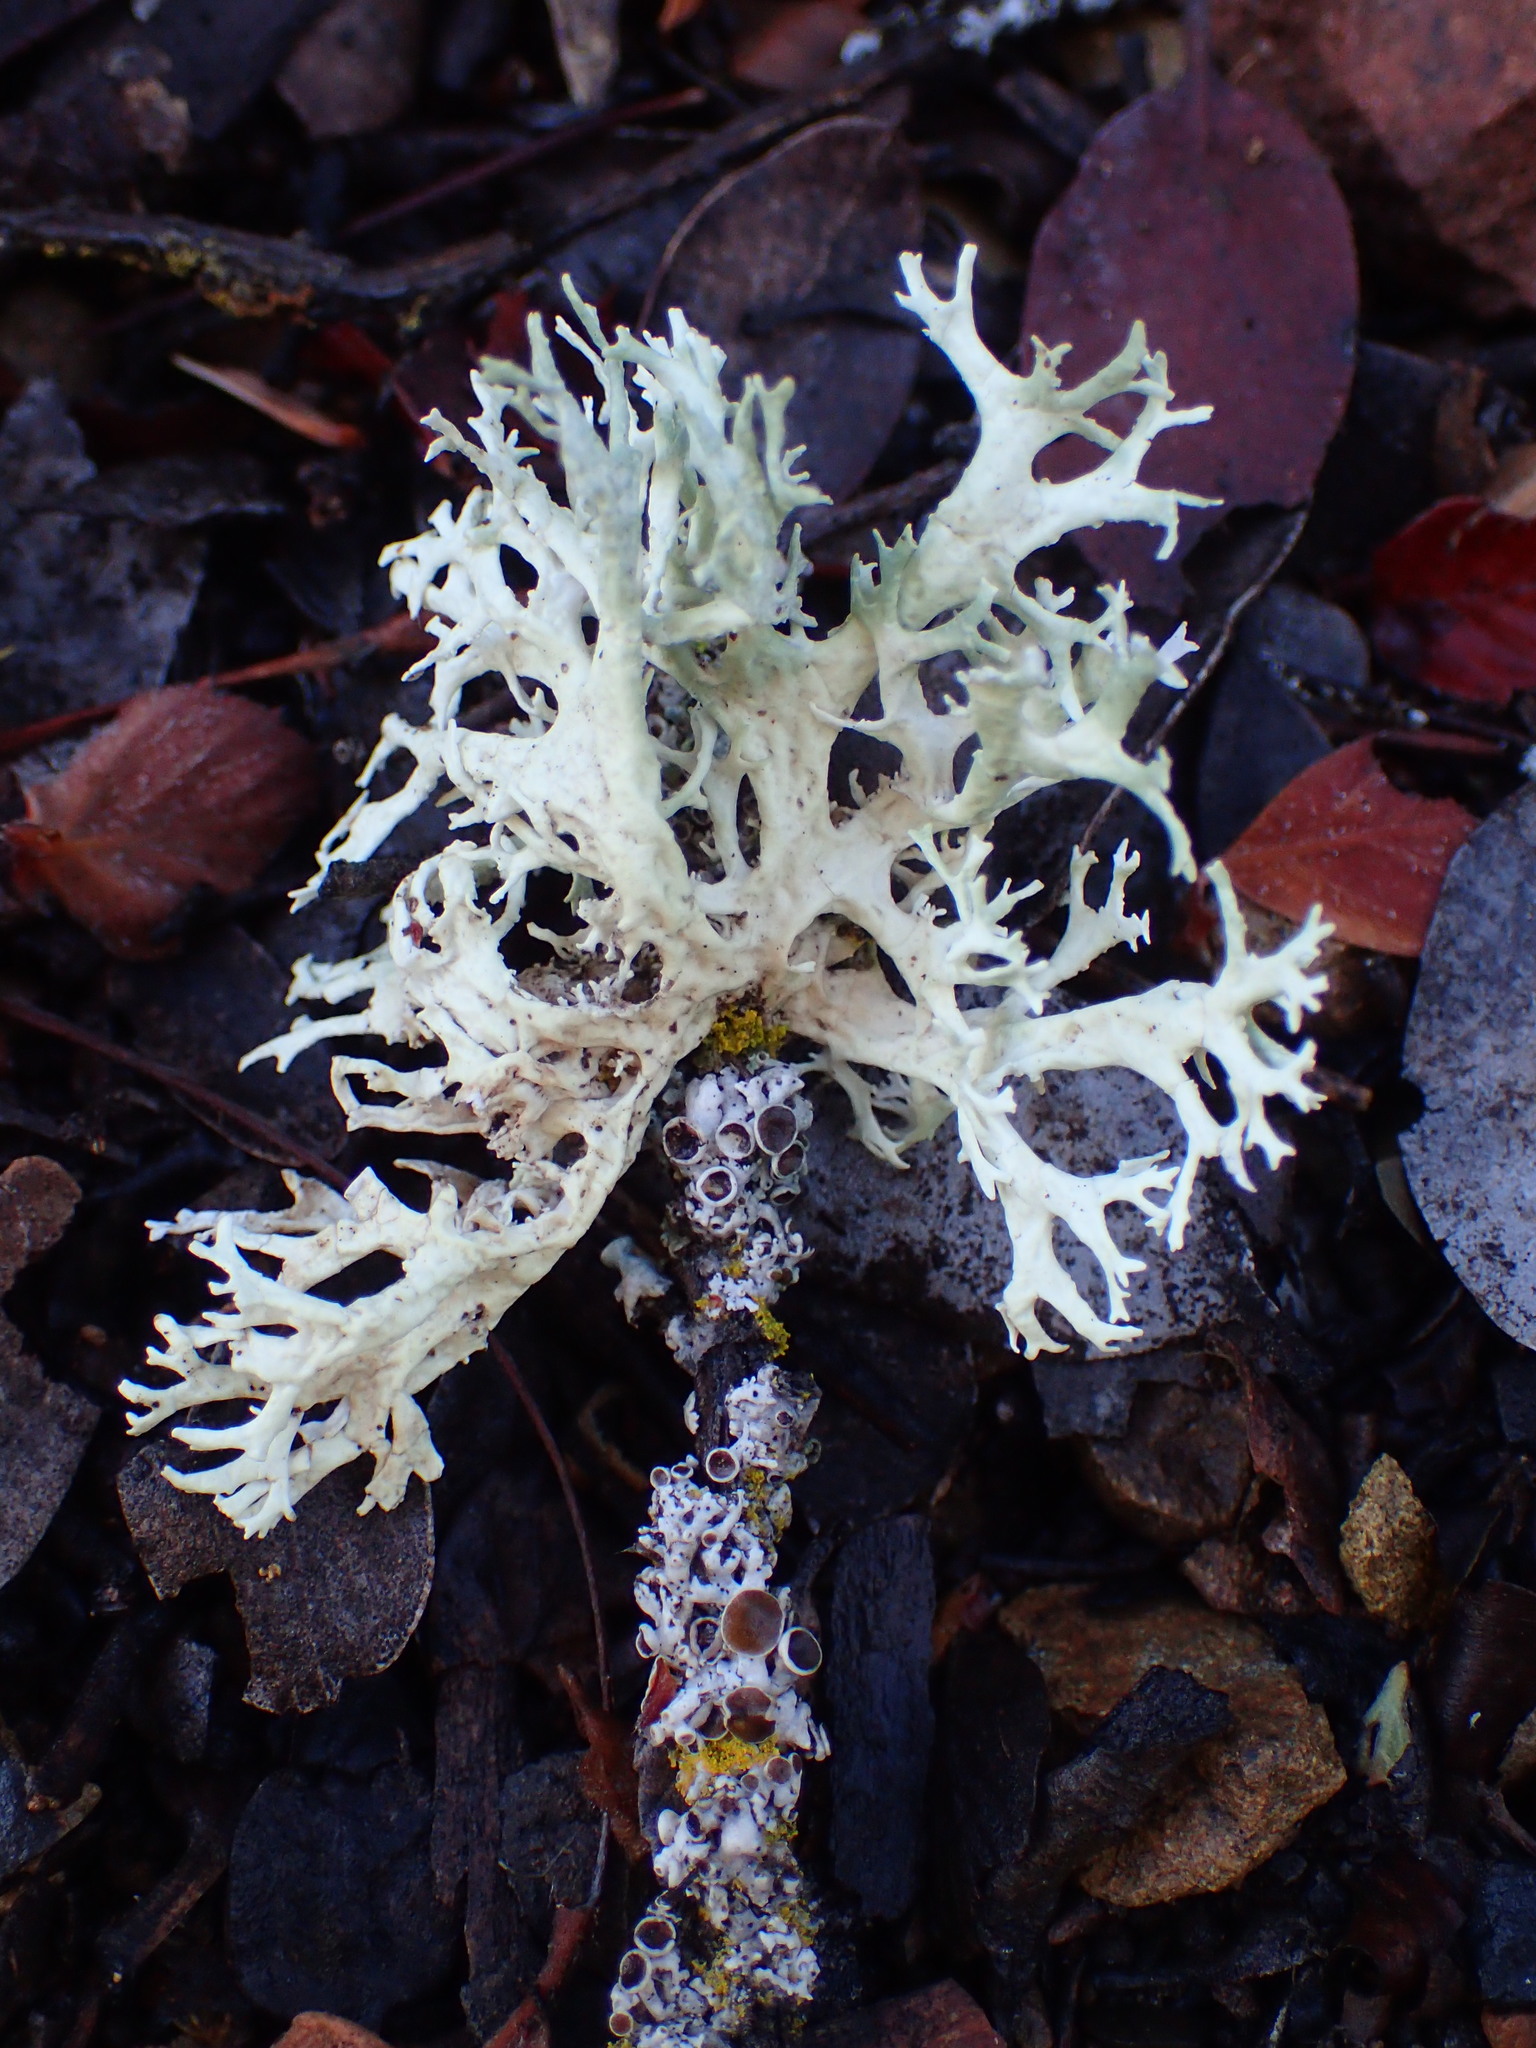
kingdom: Fungi
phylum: Ascomycota
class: Lecanoromycetes
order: Lecanorales
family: Parmeliaceae
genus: Evernia
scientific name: Evernia prunastri
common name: Oak moss
